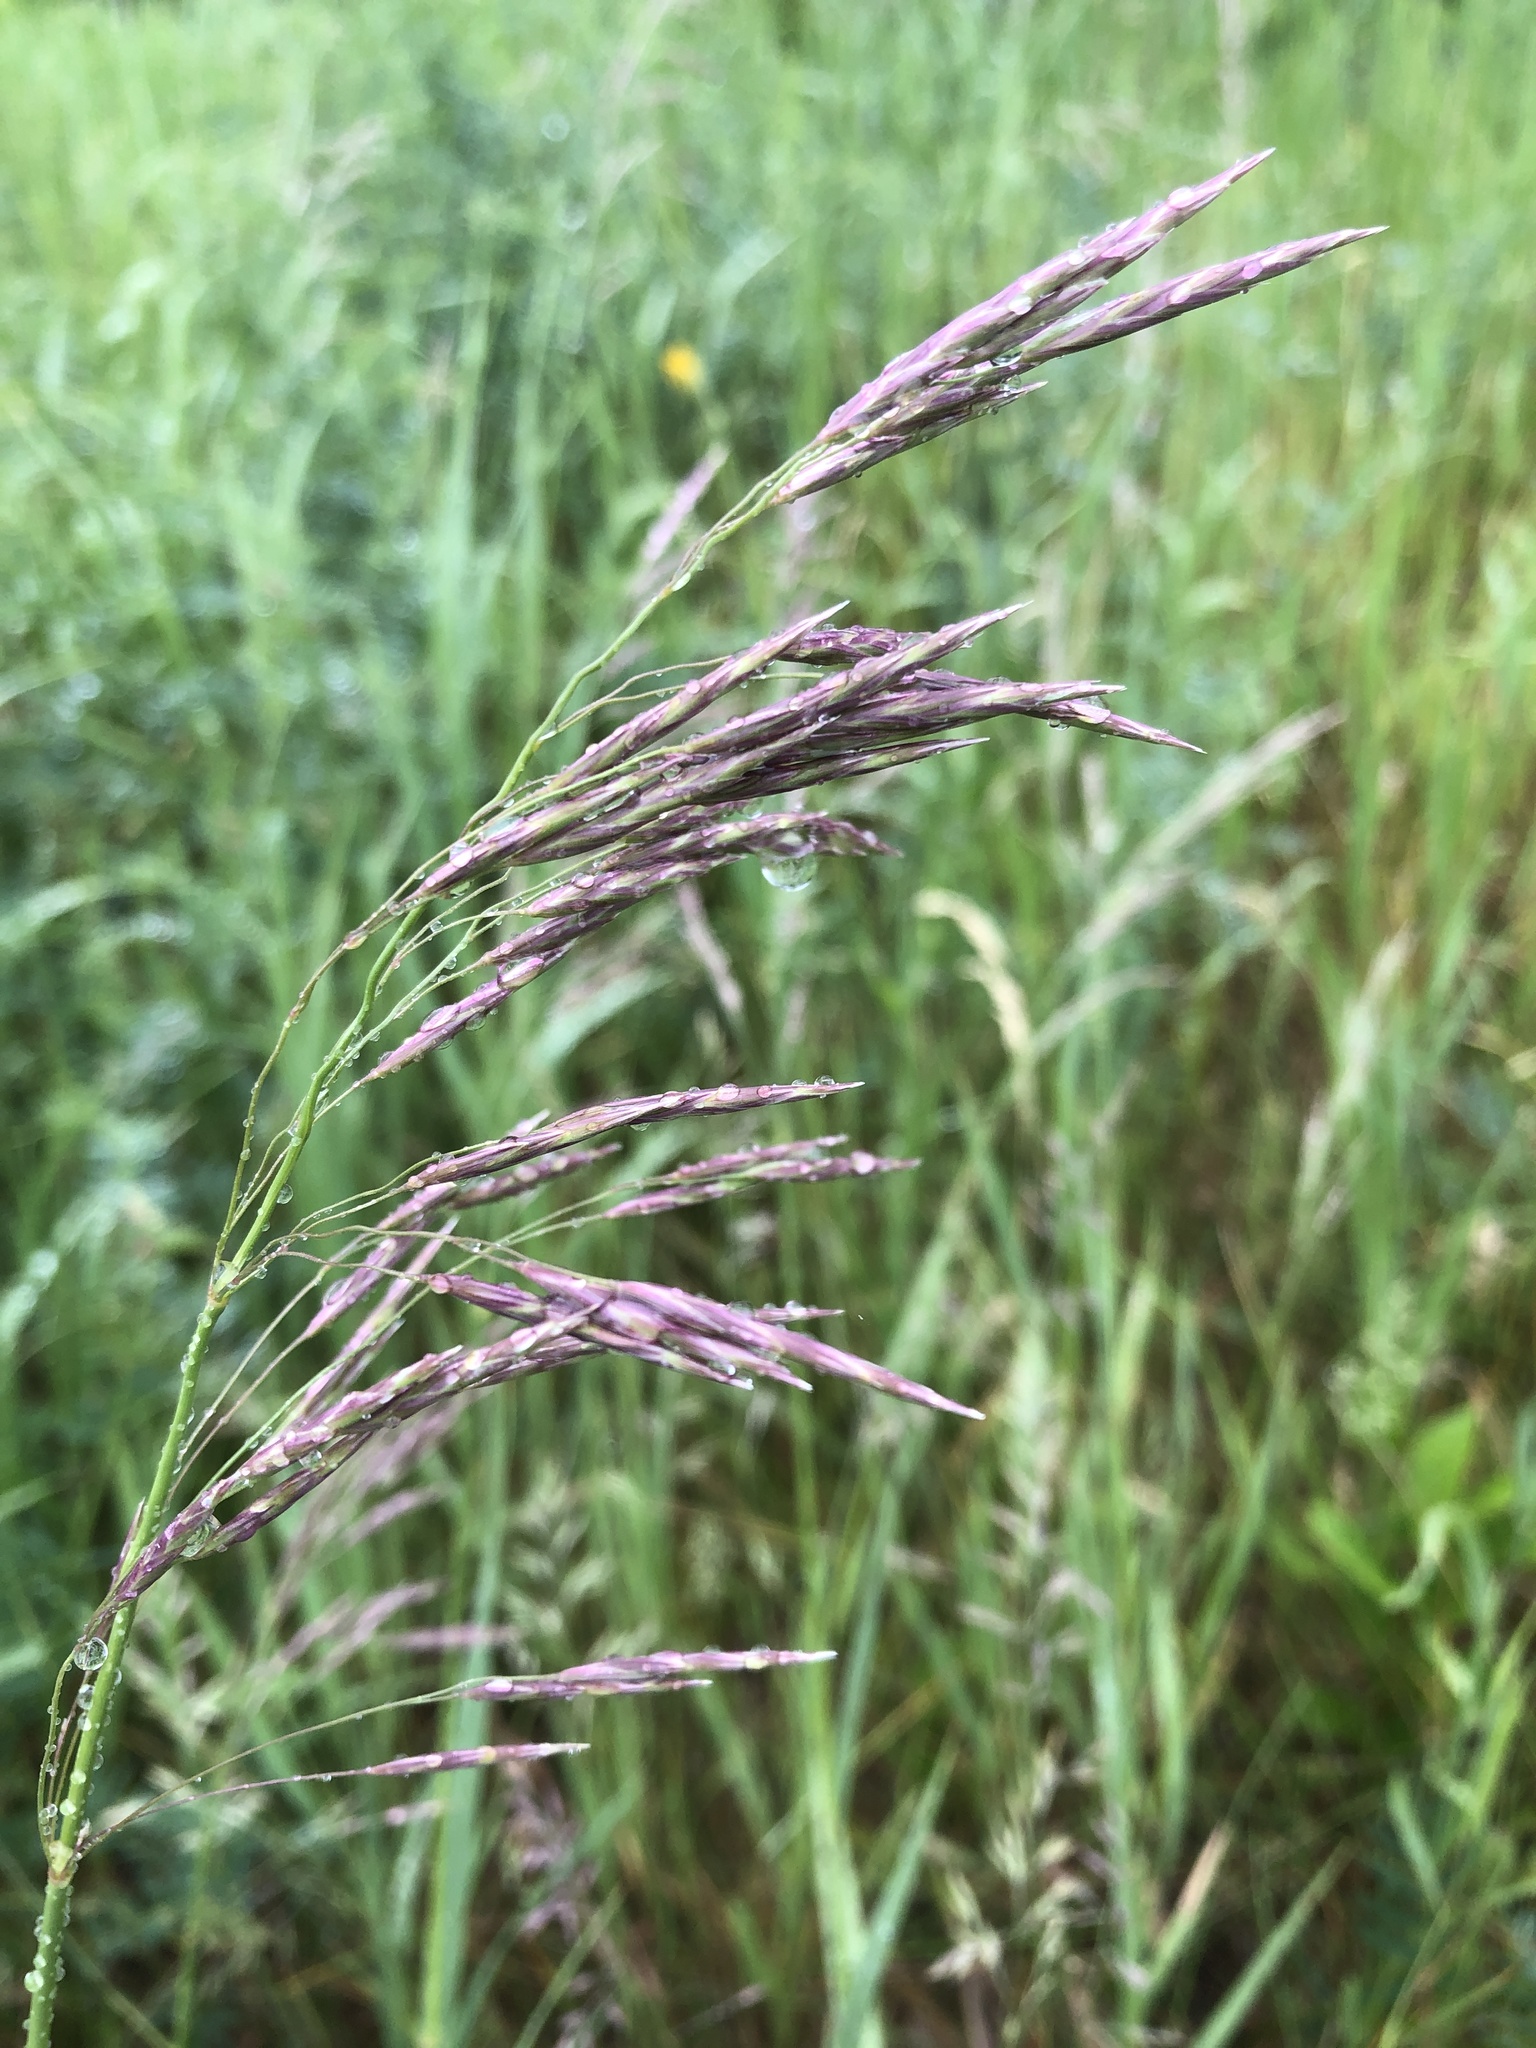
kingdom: Plantae
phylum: Tracheophyta
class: Liliopsida
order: Poales
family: Poaceae
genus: Bromus
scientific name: Bromus inermis
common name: Smooth brome
